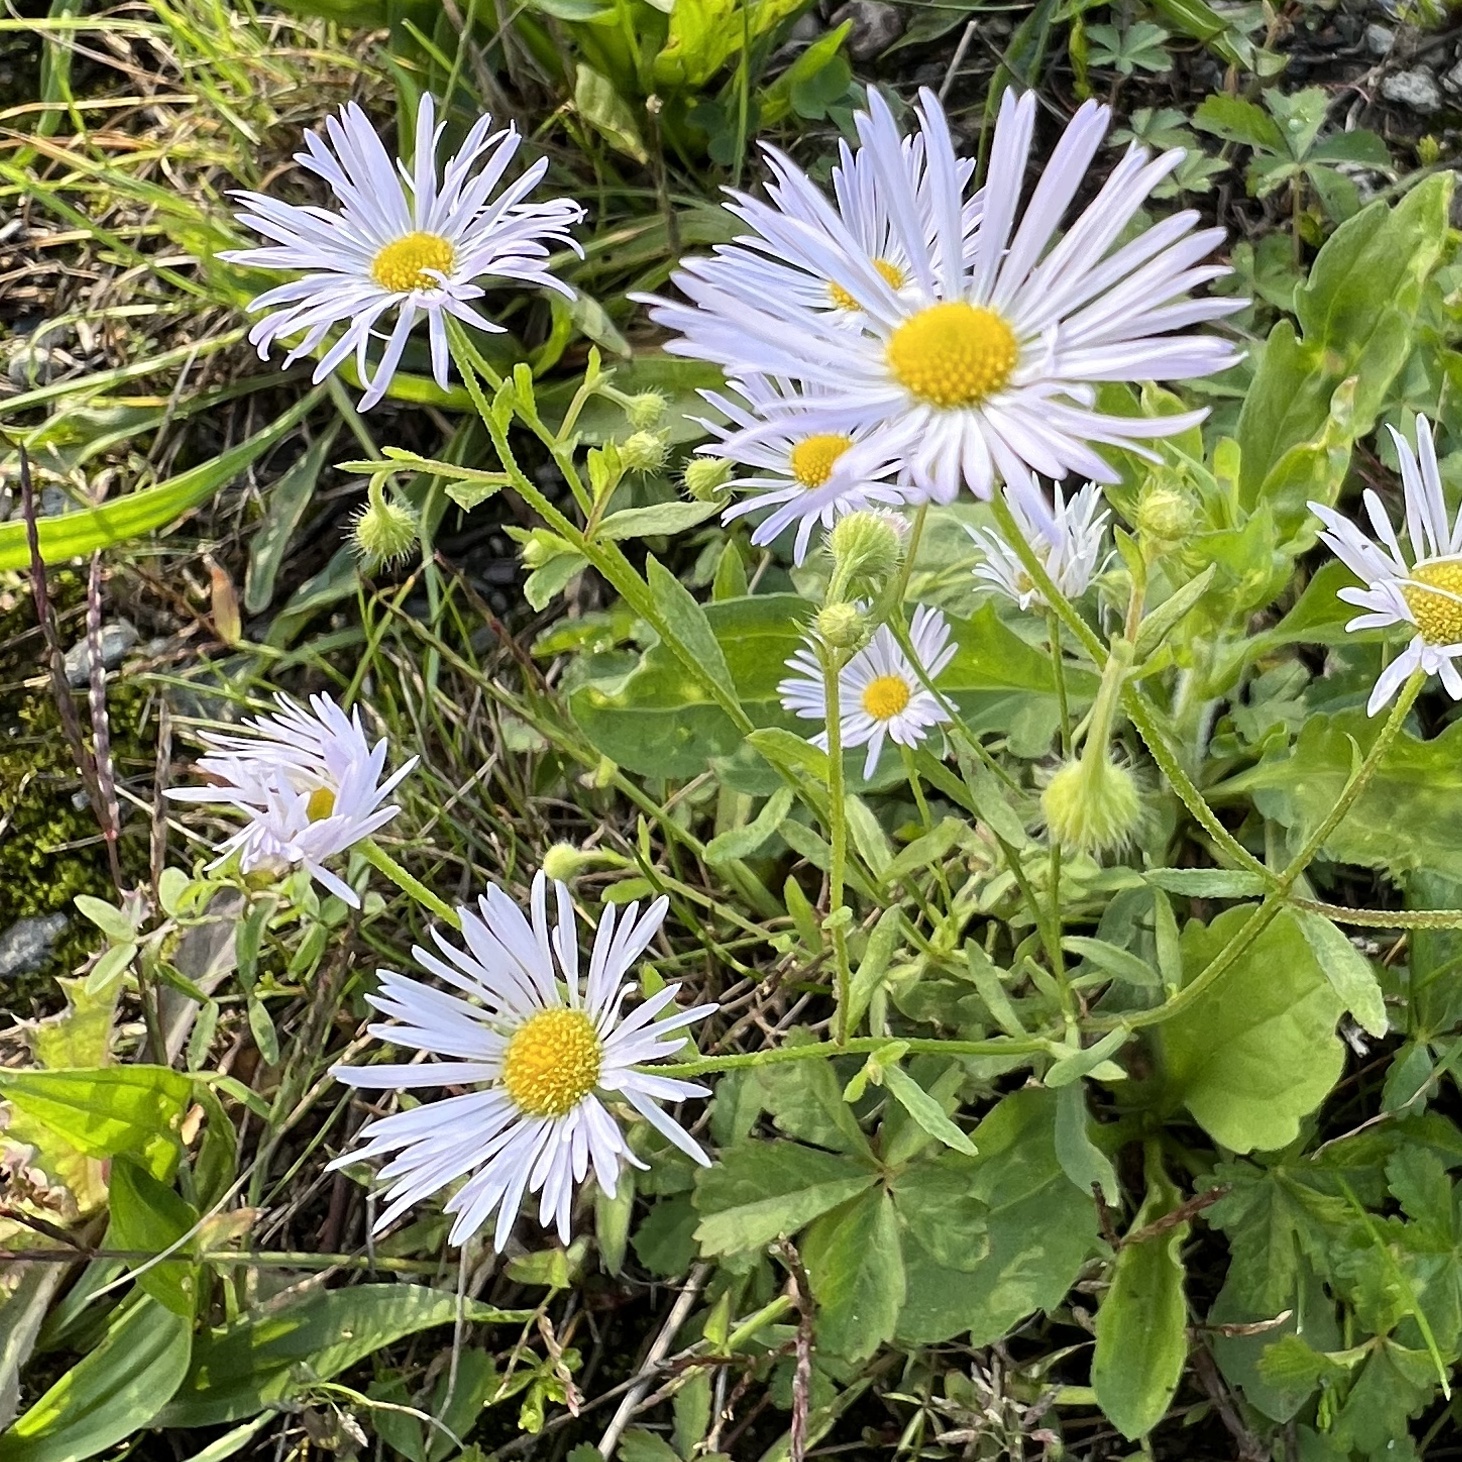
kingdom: Plantae
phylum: Tracheophyta
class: Magnoliopsida
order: Asterales
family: Asteraceae
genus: Erigeron
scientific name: Erigeron annuus
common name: Tall fleabane
